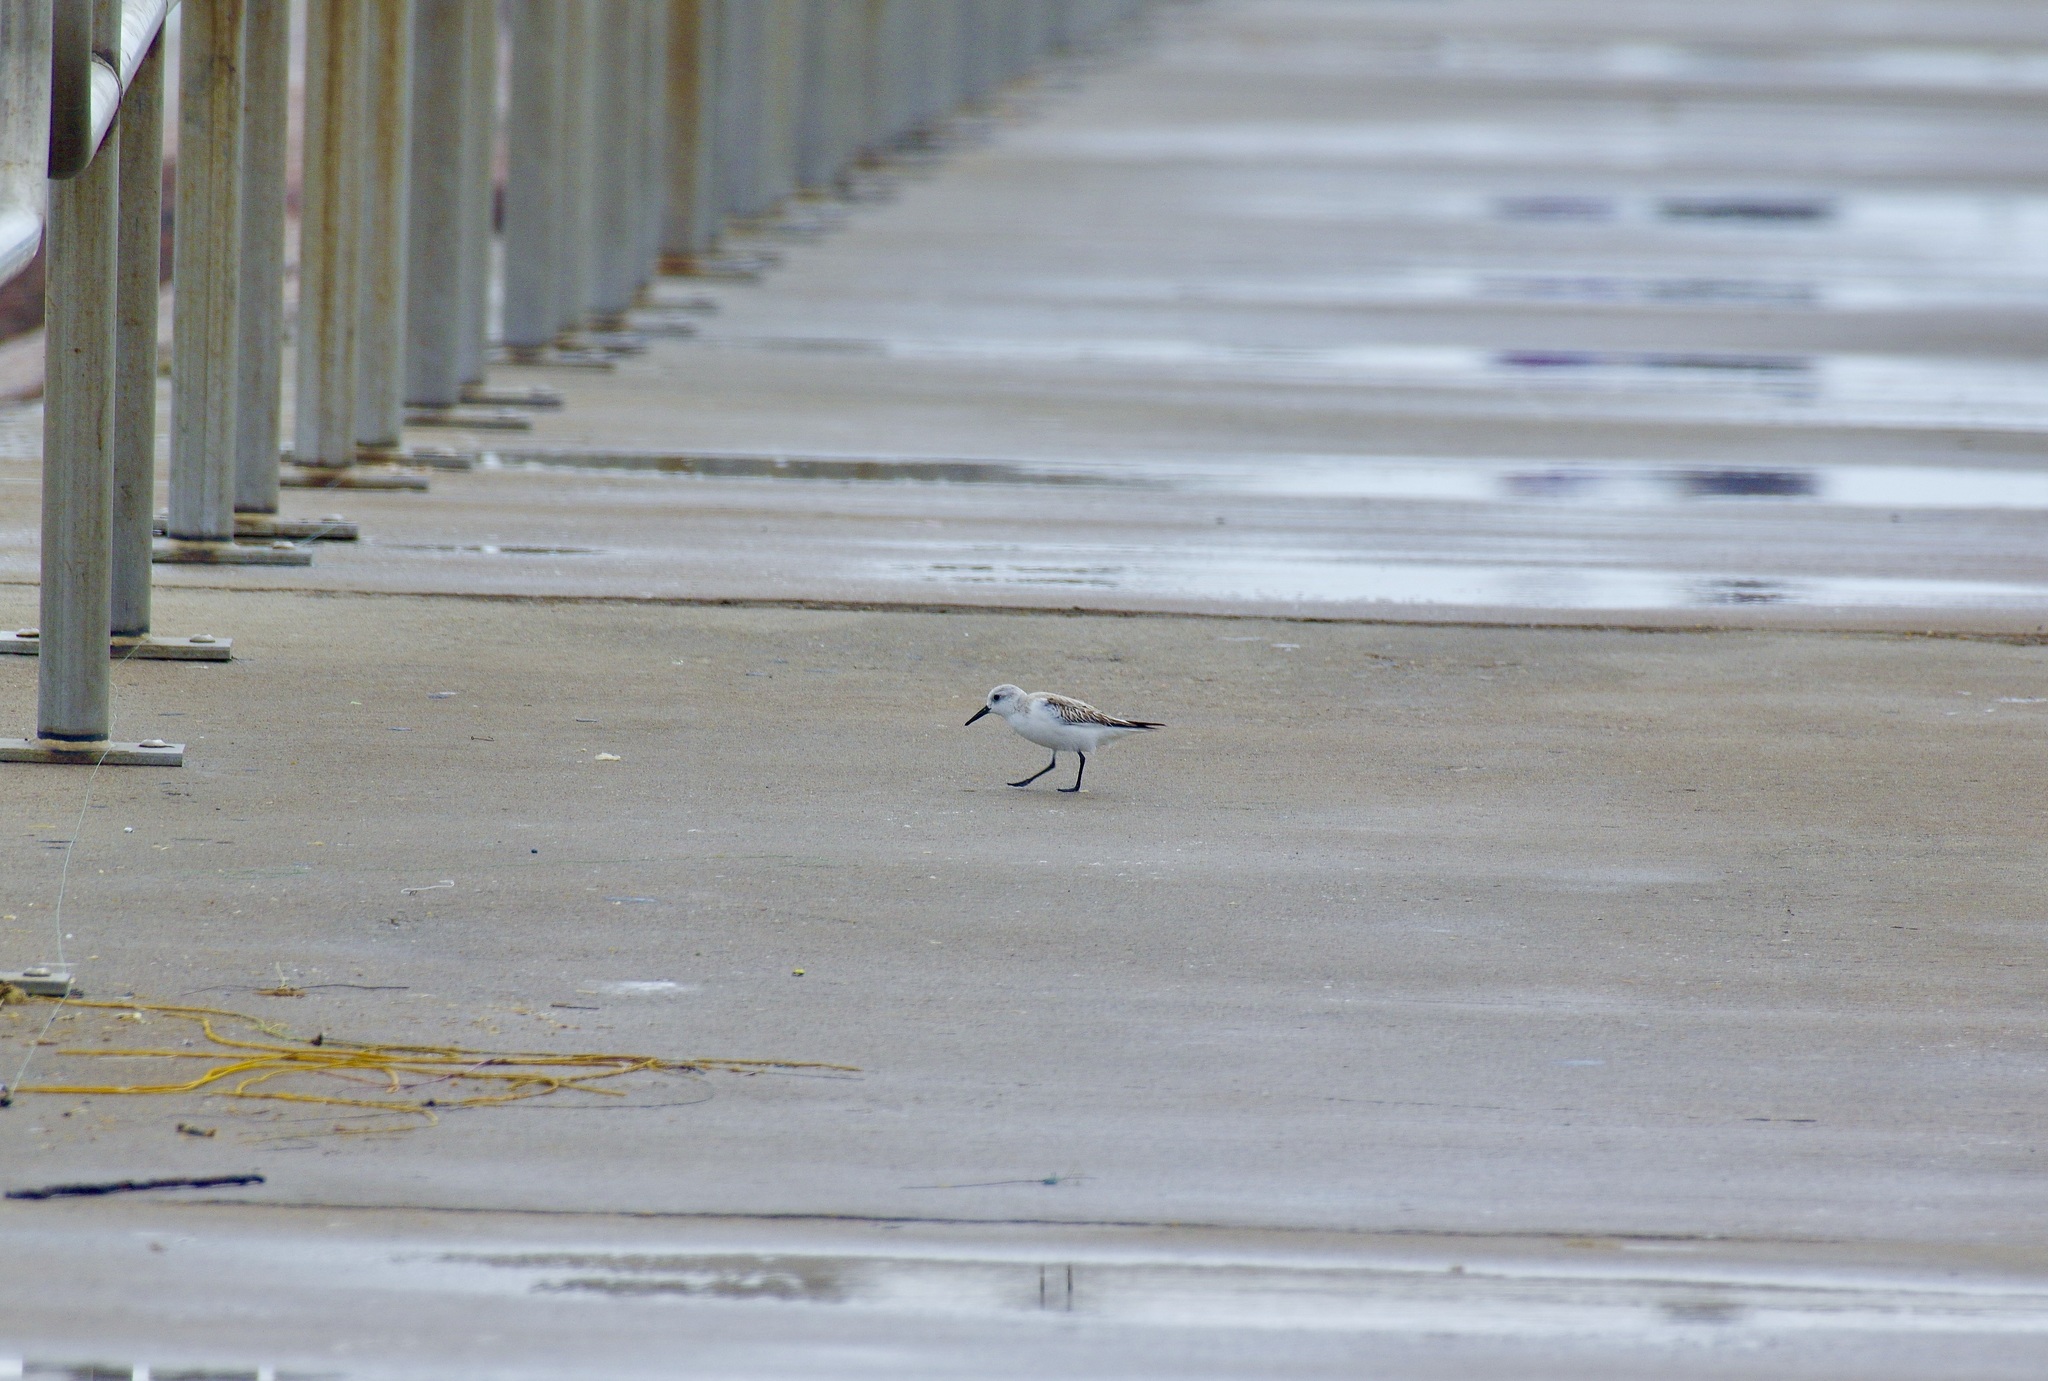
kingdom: Animalia
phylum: Chordata
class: Aves
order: Charadriiformes
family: Scolopacidae
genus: Calidris
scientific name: Calidris alba
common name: Sanderling
